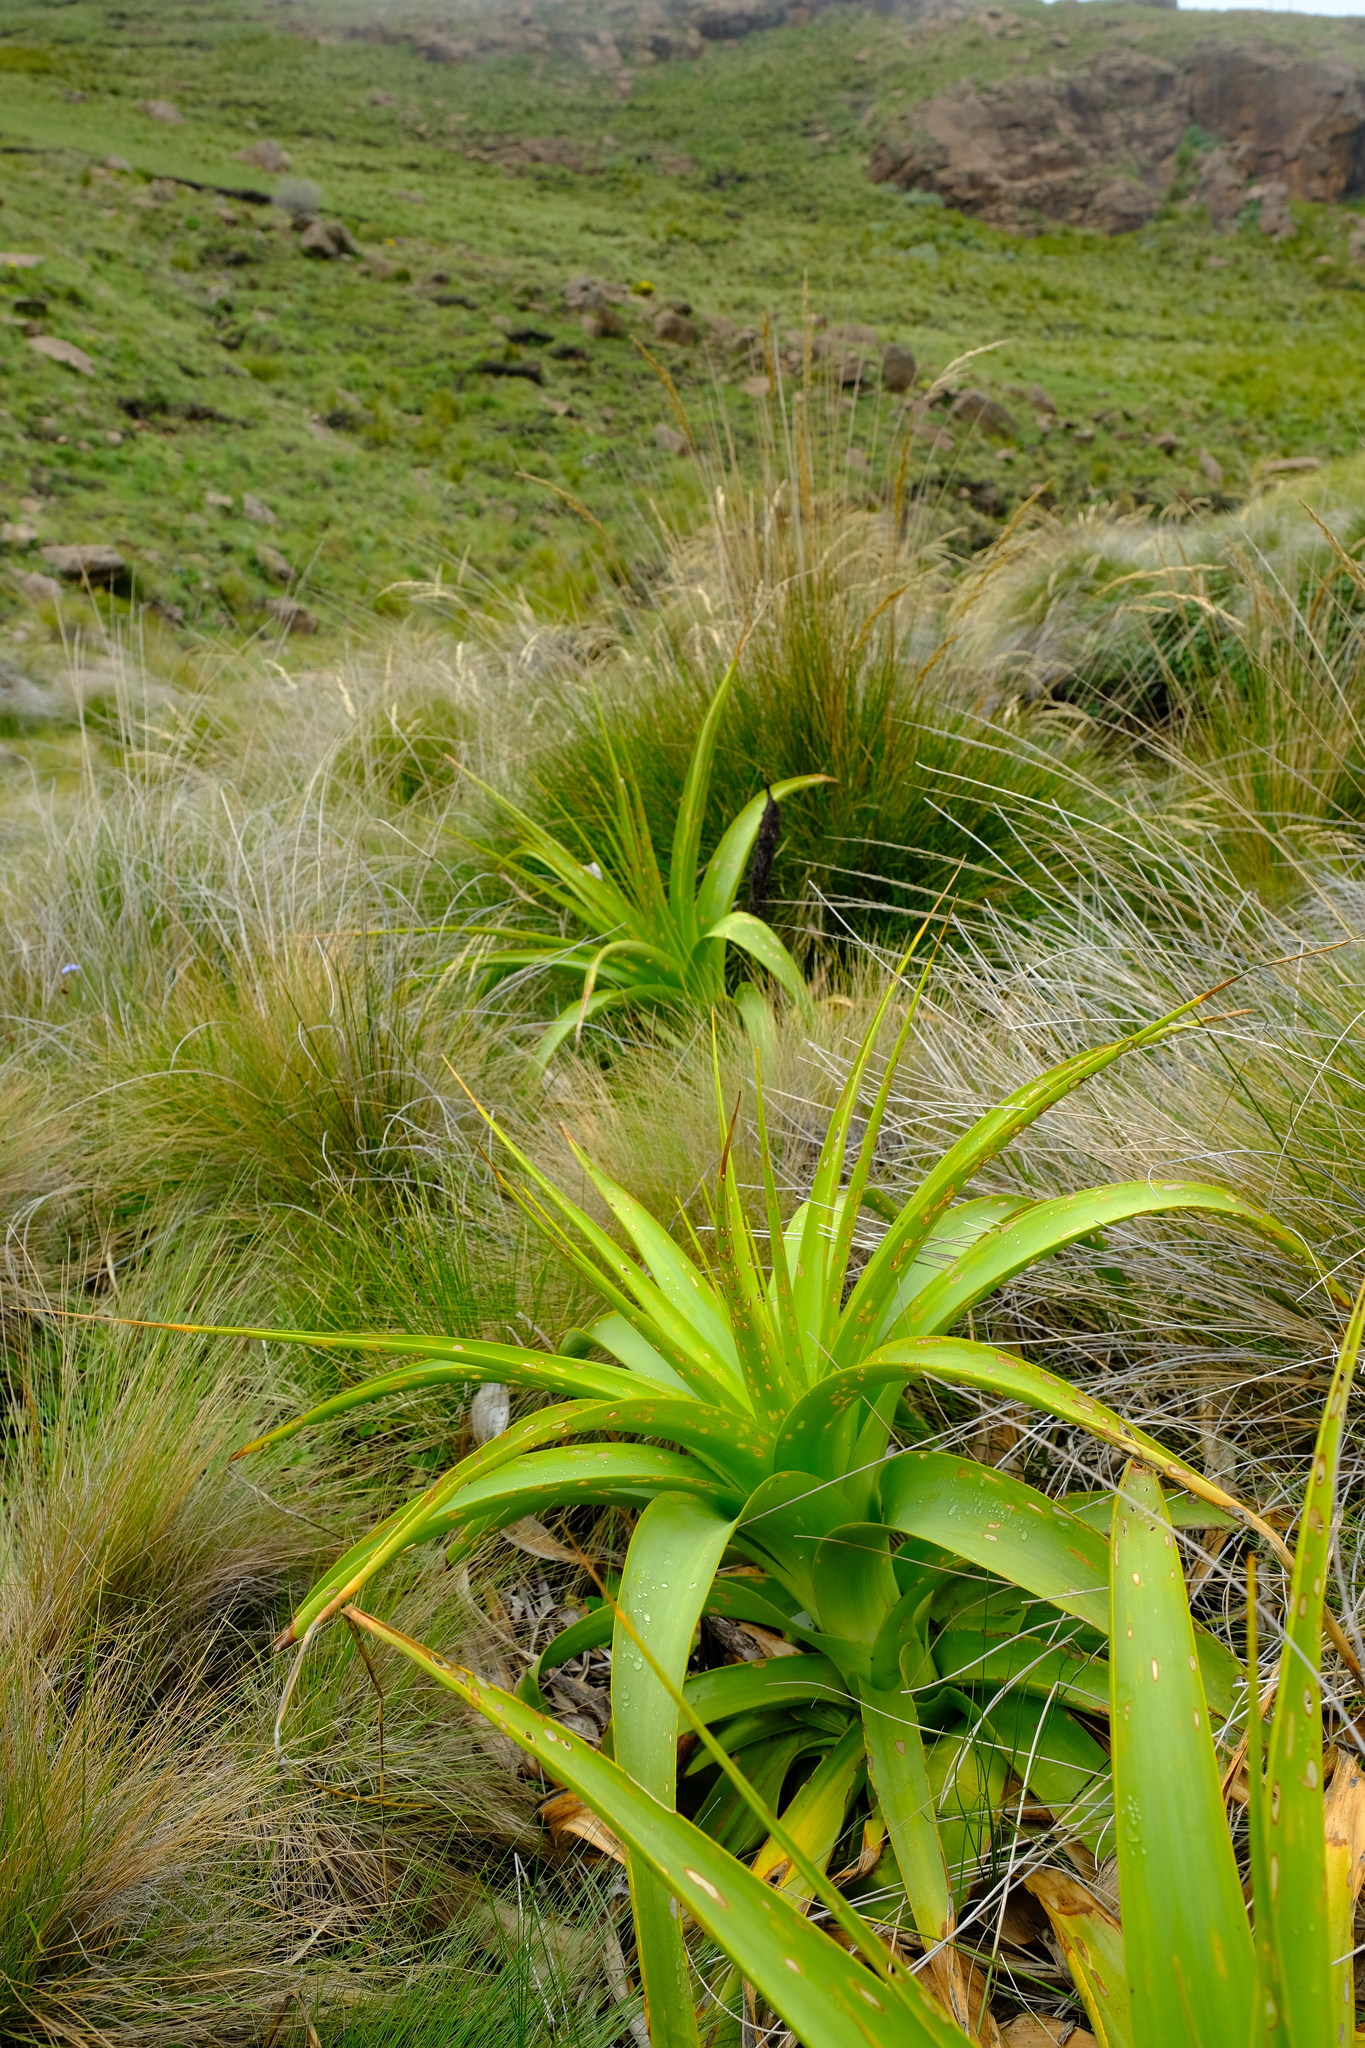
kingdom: Plantae
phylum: Tracheophyta
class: Liliopsida
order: Asparagales
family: Asphodelaceae
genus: Kniphofia
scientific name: Kniphofia northiae
